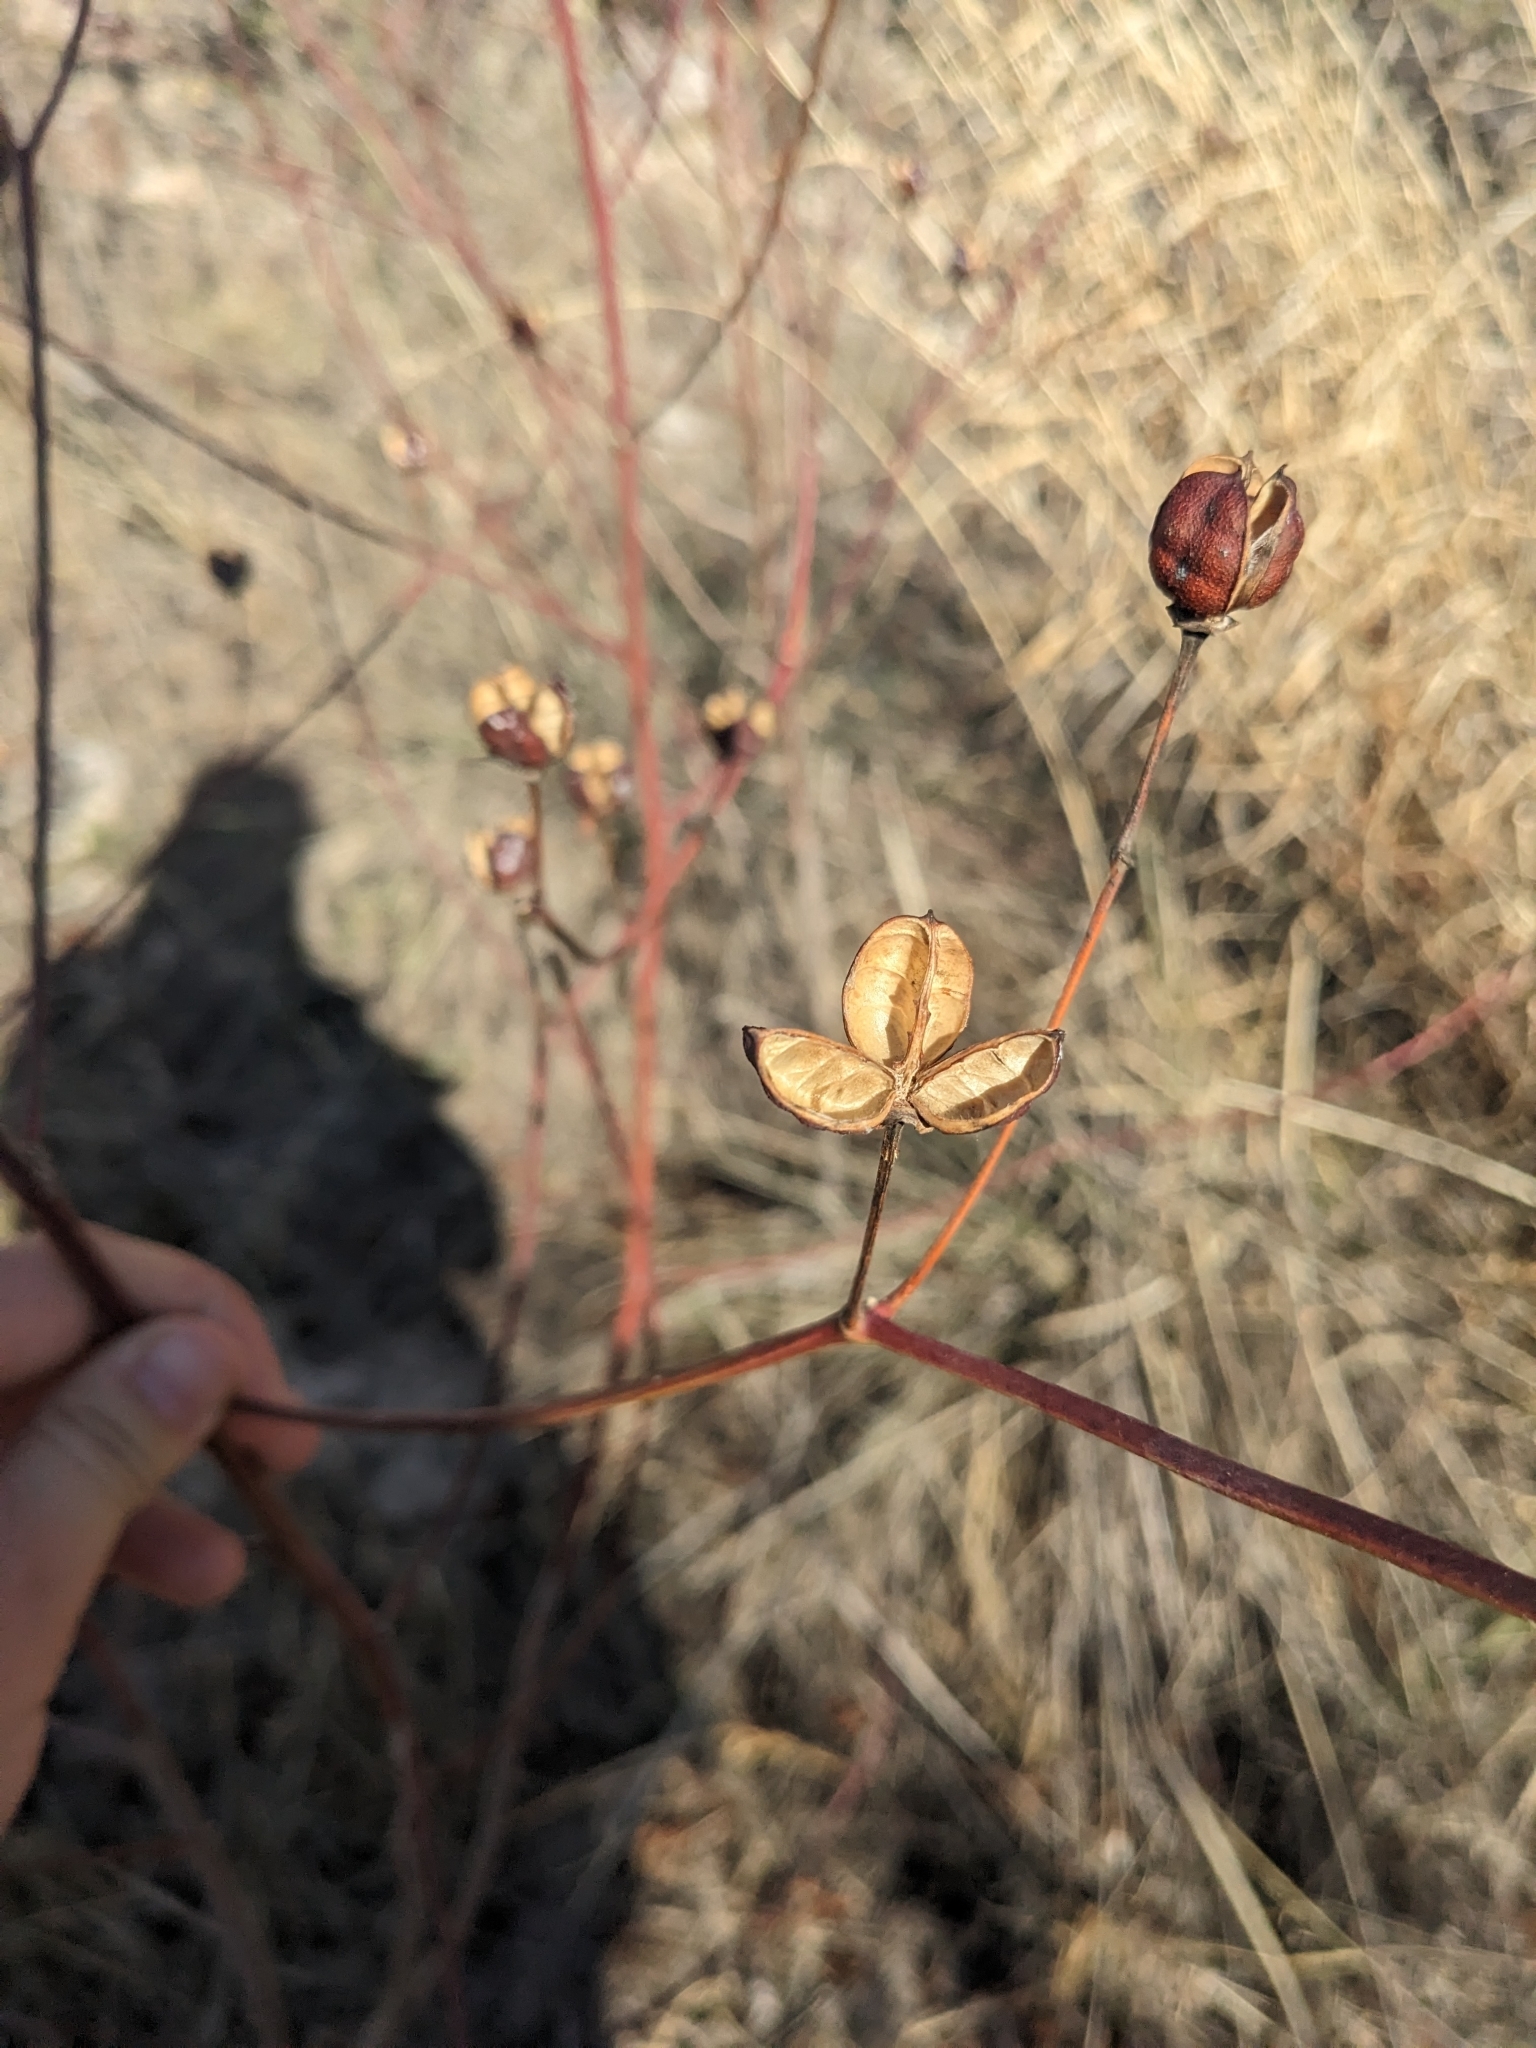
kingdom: Plantae
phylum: Tracheophyta
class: Magnoliopsida
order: Malvales
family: Malvaceae
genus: Gossypium
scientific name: Gossypium thurberi
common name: Desert cotton
